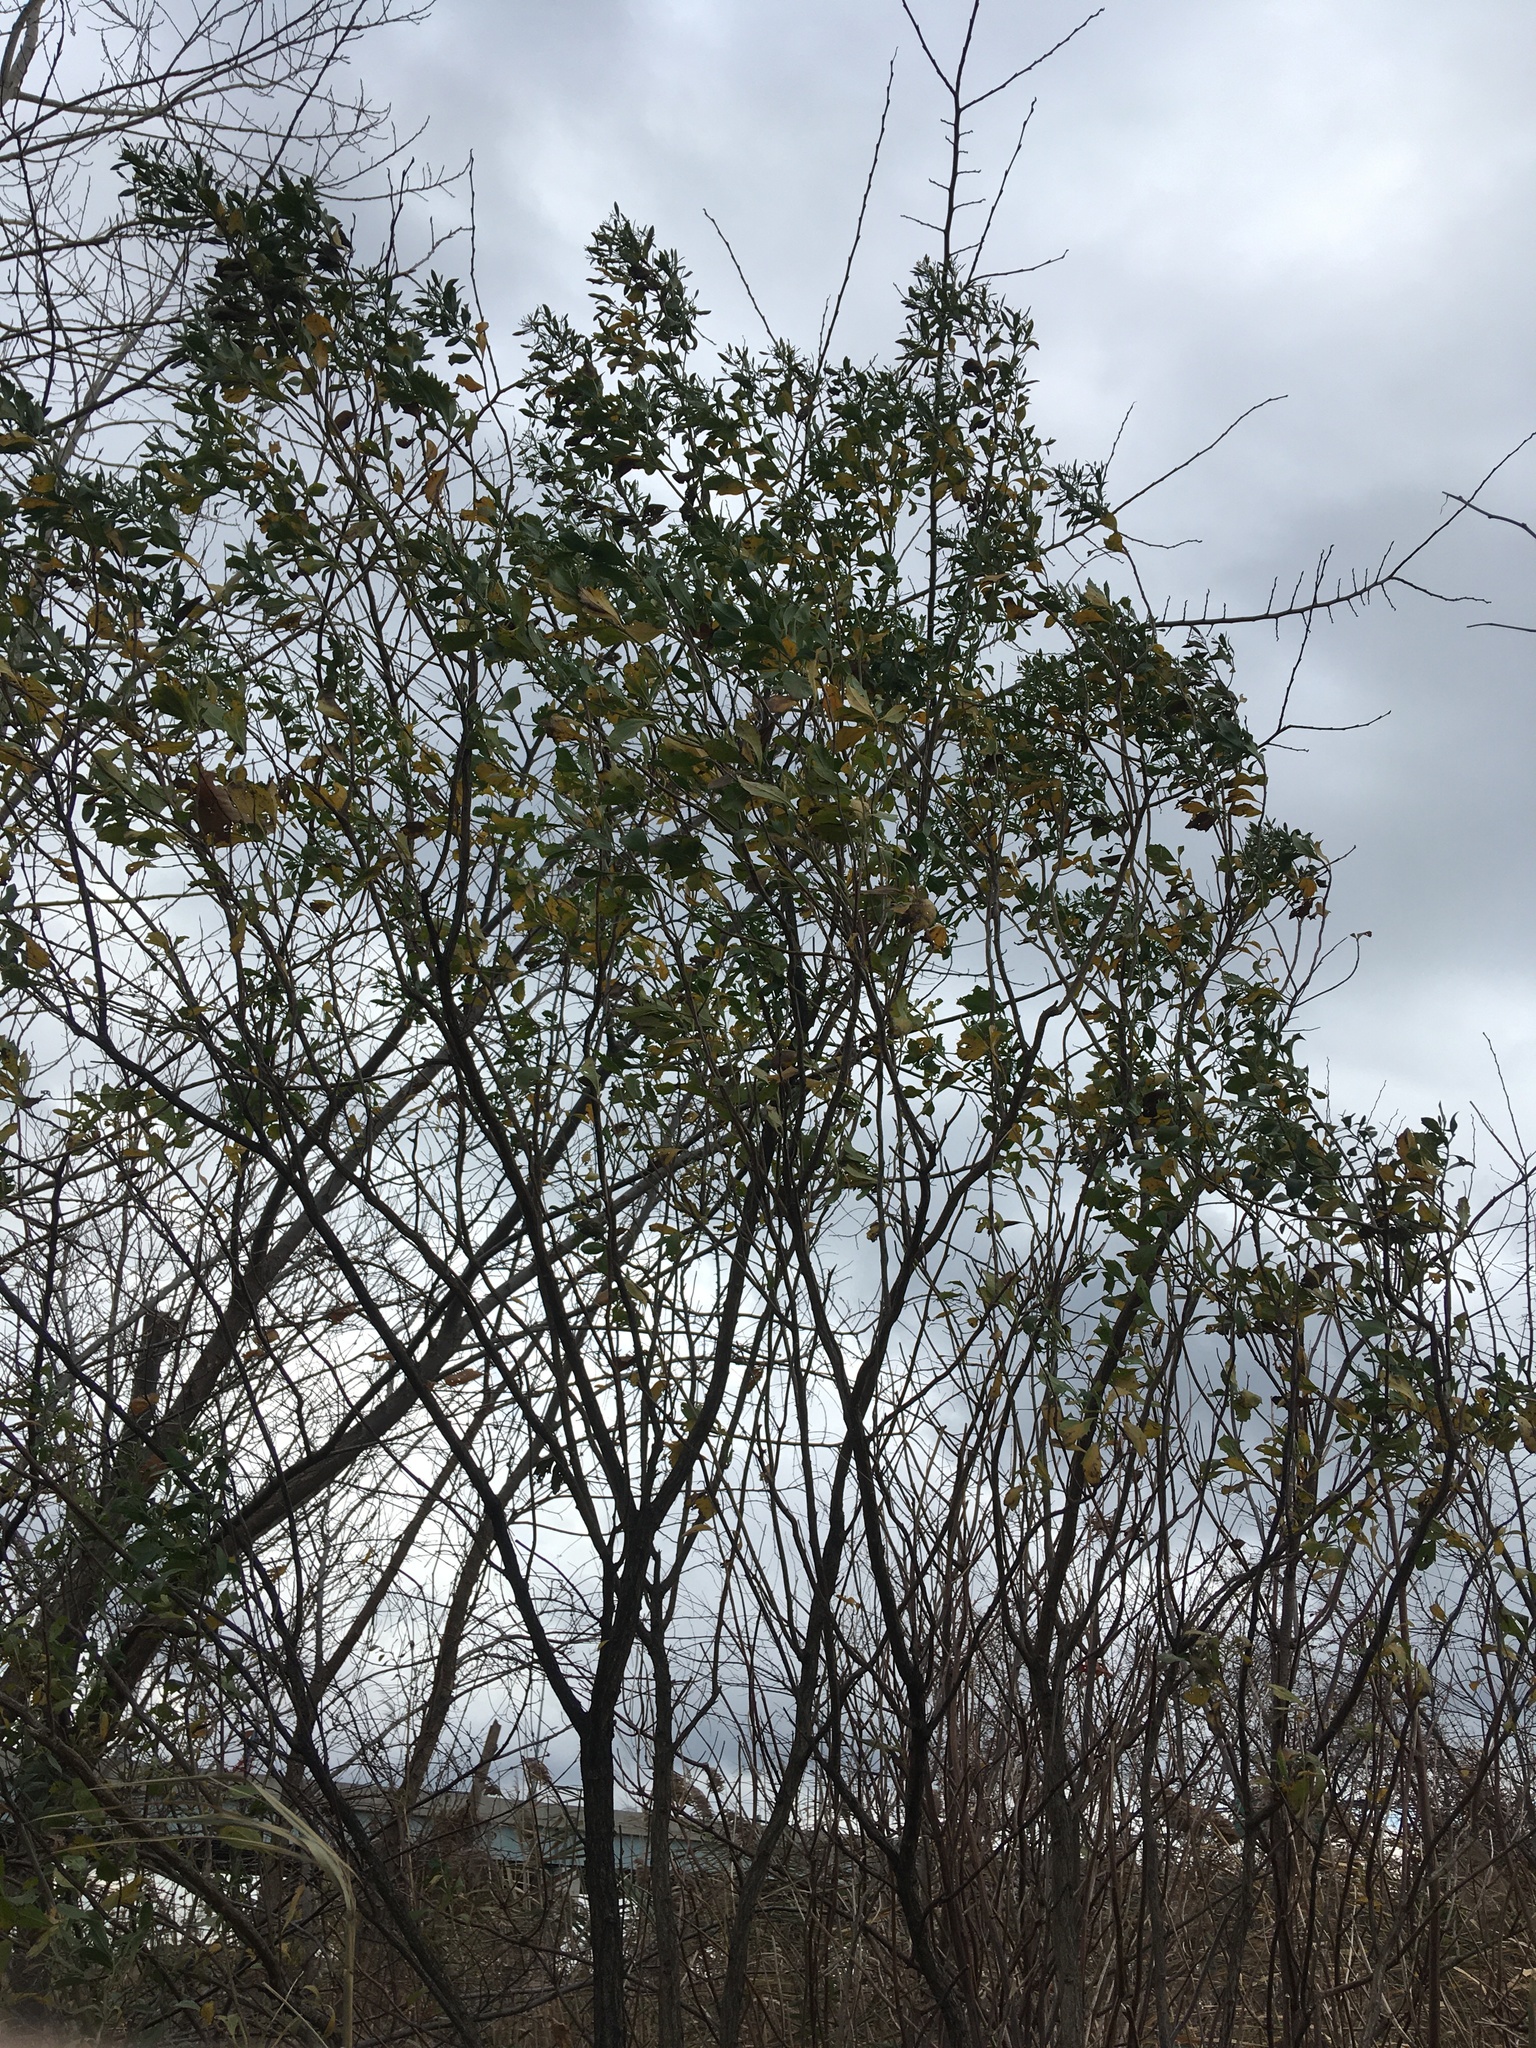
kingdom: Plantae
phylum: Tracheophyta
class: Magnoliopsida
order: Asterales
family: Asteraceae
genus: Baccharis
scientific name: Baccharis halimifolia
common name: Eastern baccharis
